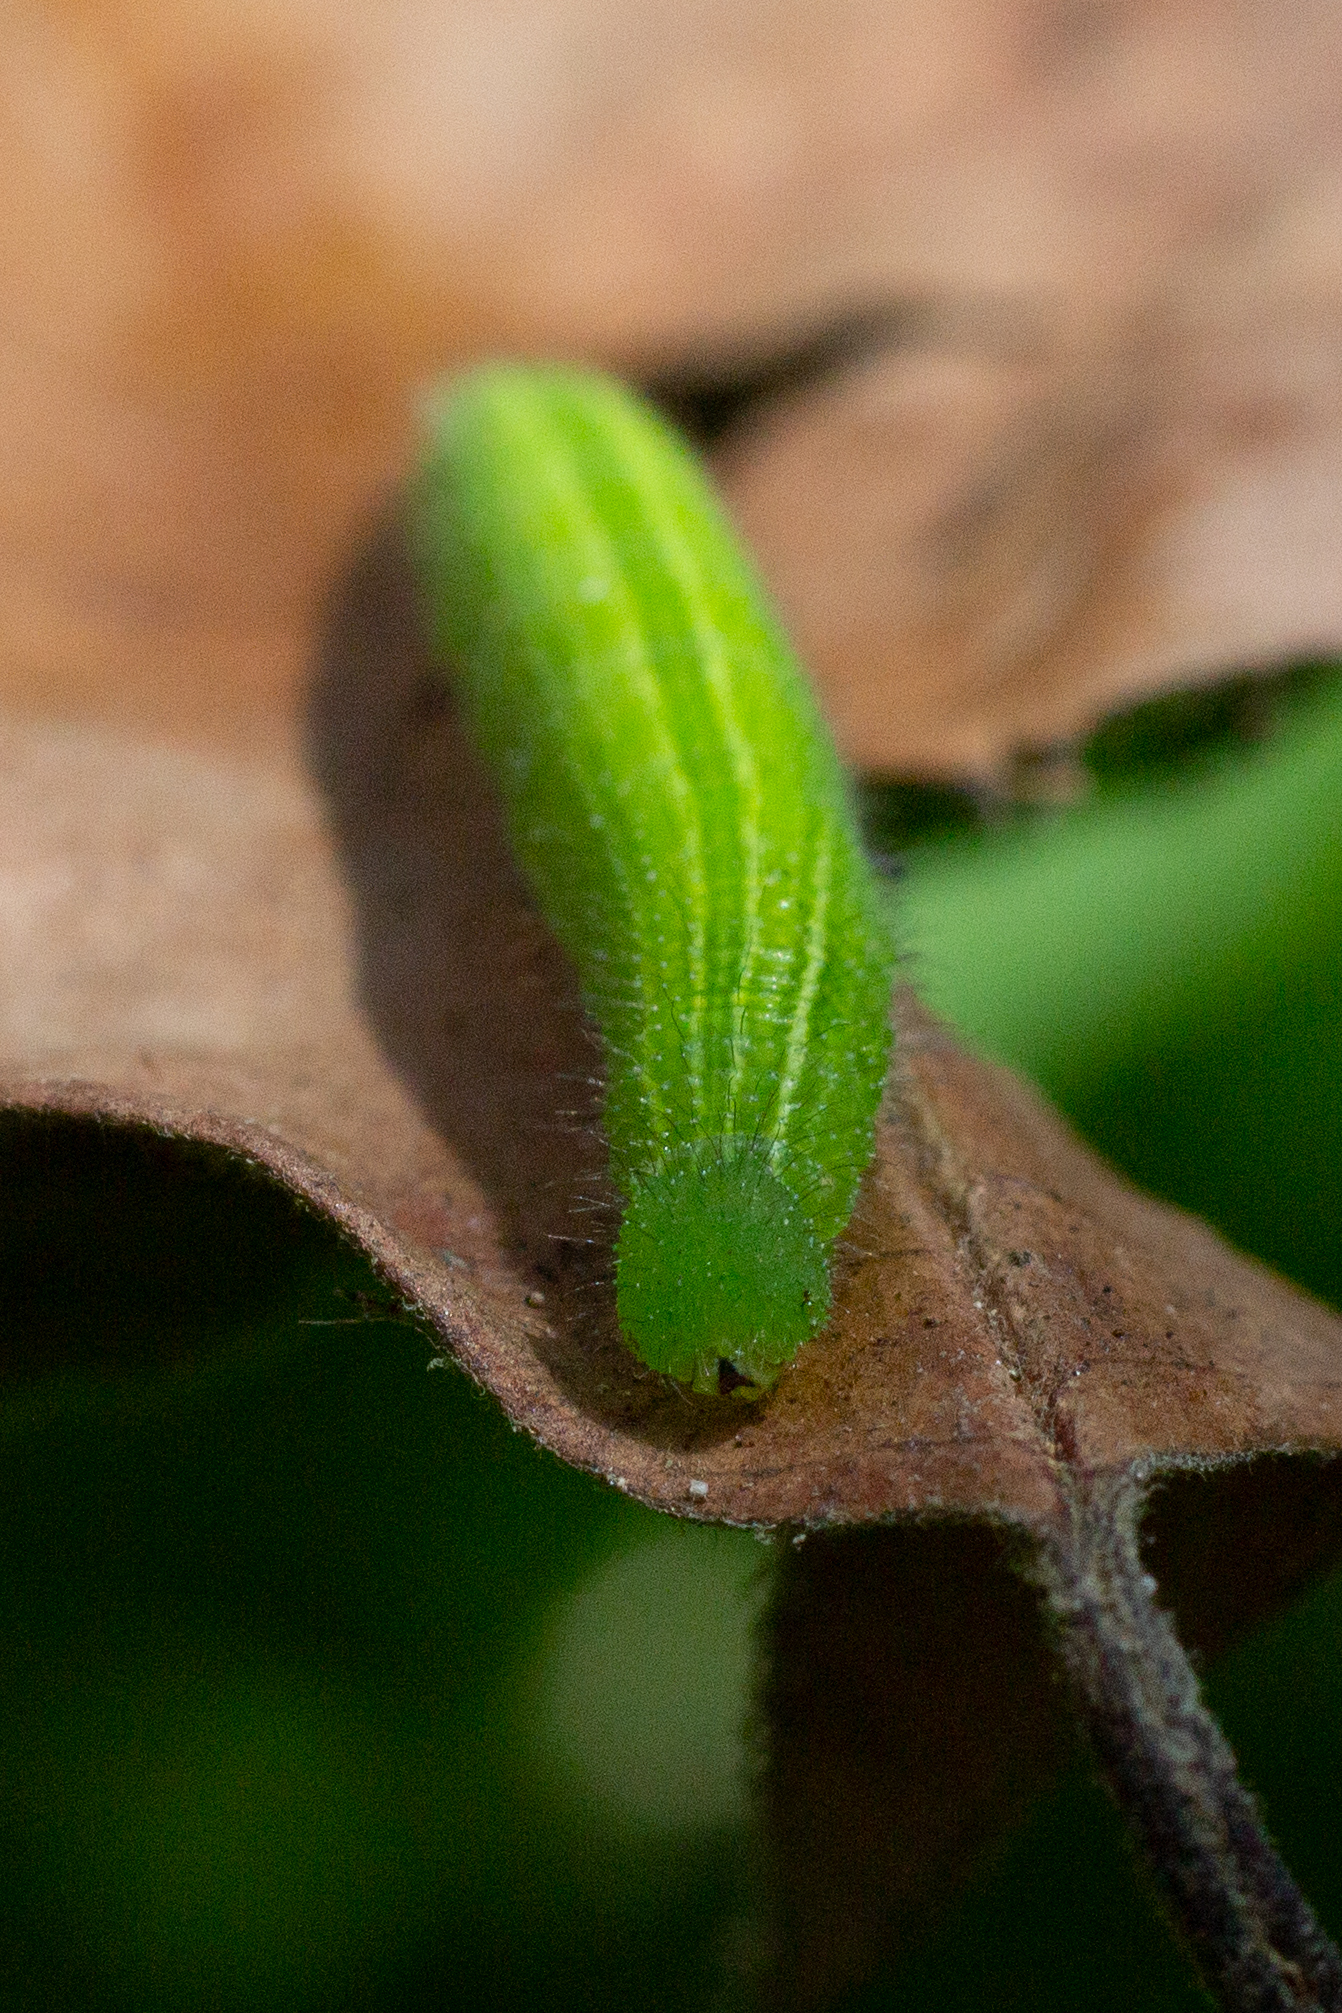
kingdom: Animalia
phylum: Arthropoda
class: Insecta
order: Lepidoptera
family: Nymphalidae
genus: Pararge
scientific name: Pararge aegeria
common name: Speckled wood
